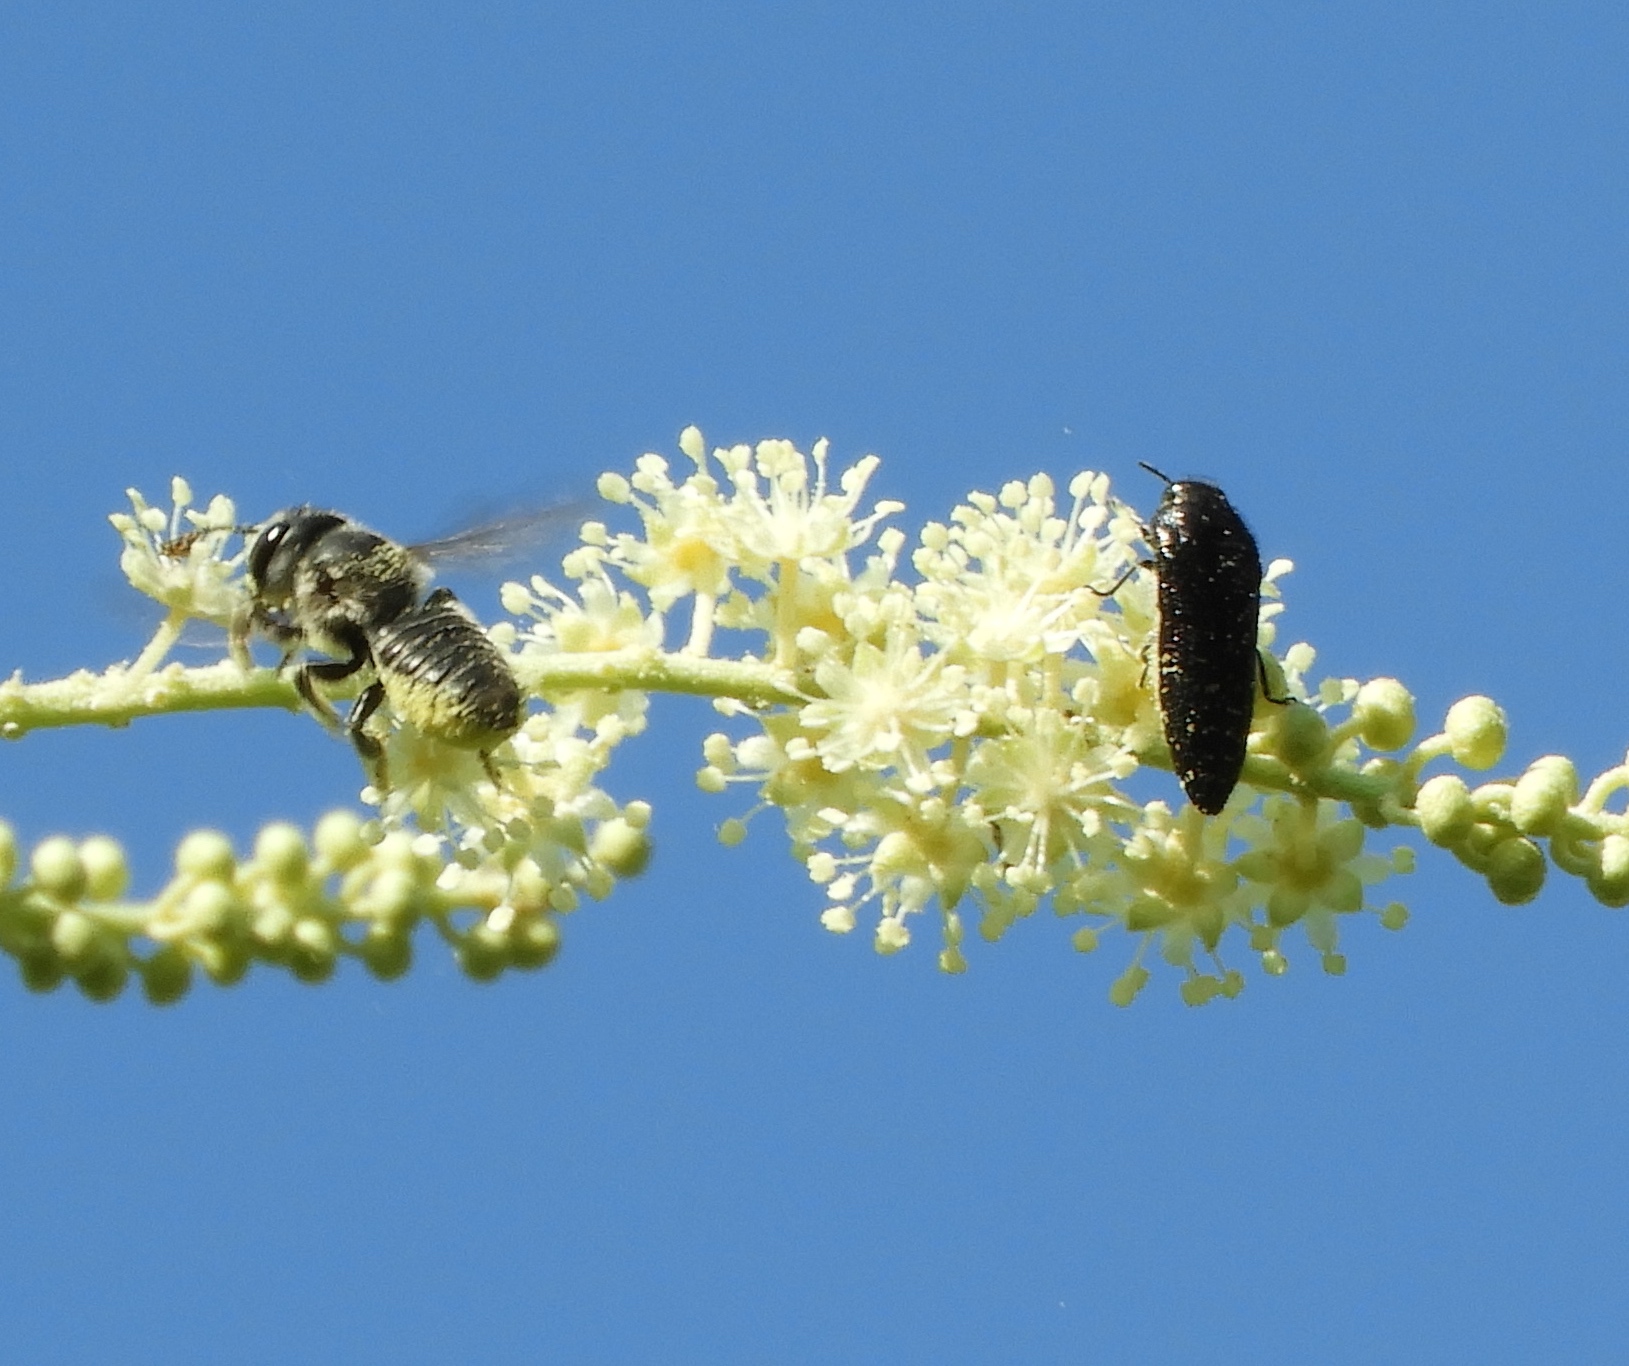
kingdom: Animalia
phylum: Arthropoda
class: Insecta
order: Hymenoptera
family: Megachilidae
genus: Megachile
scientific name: Megachile
